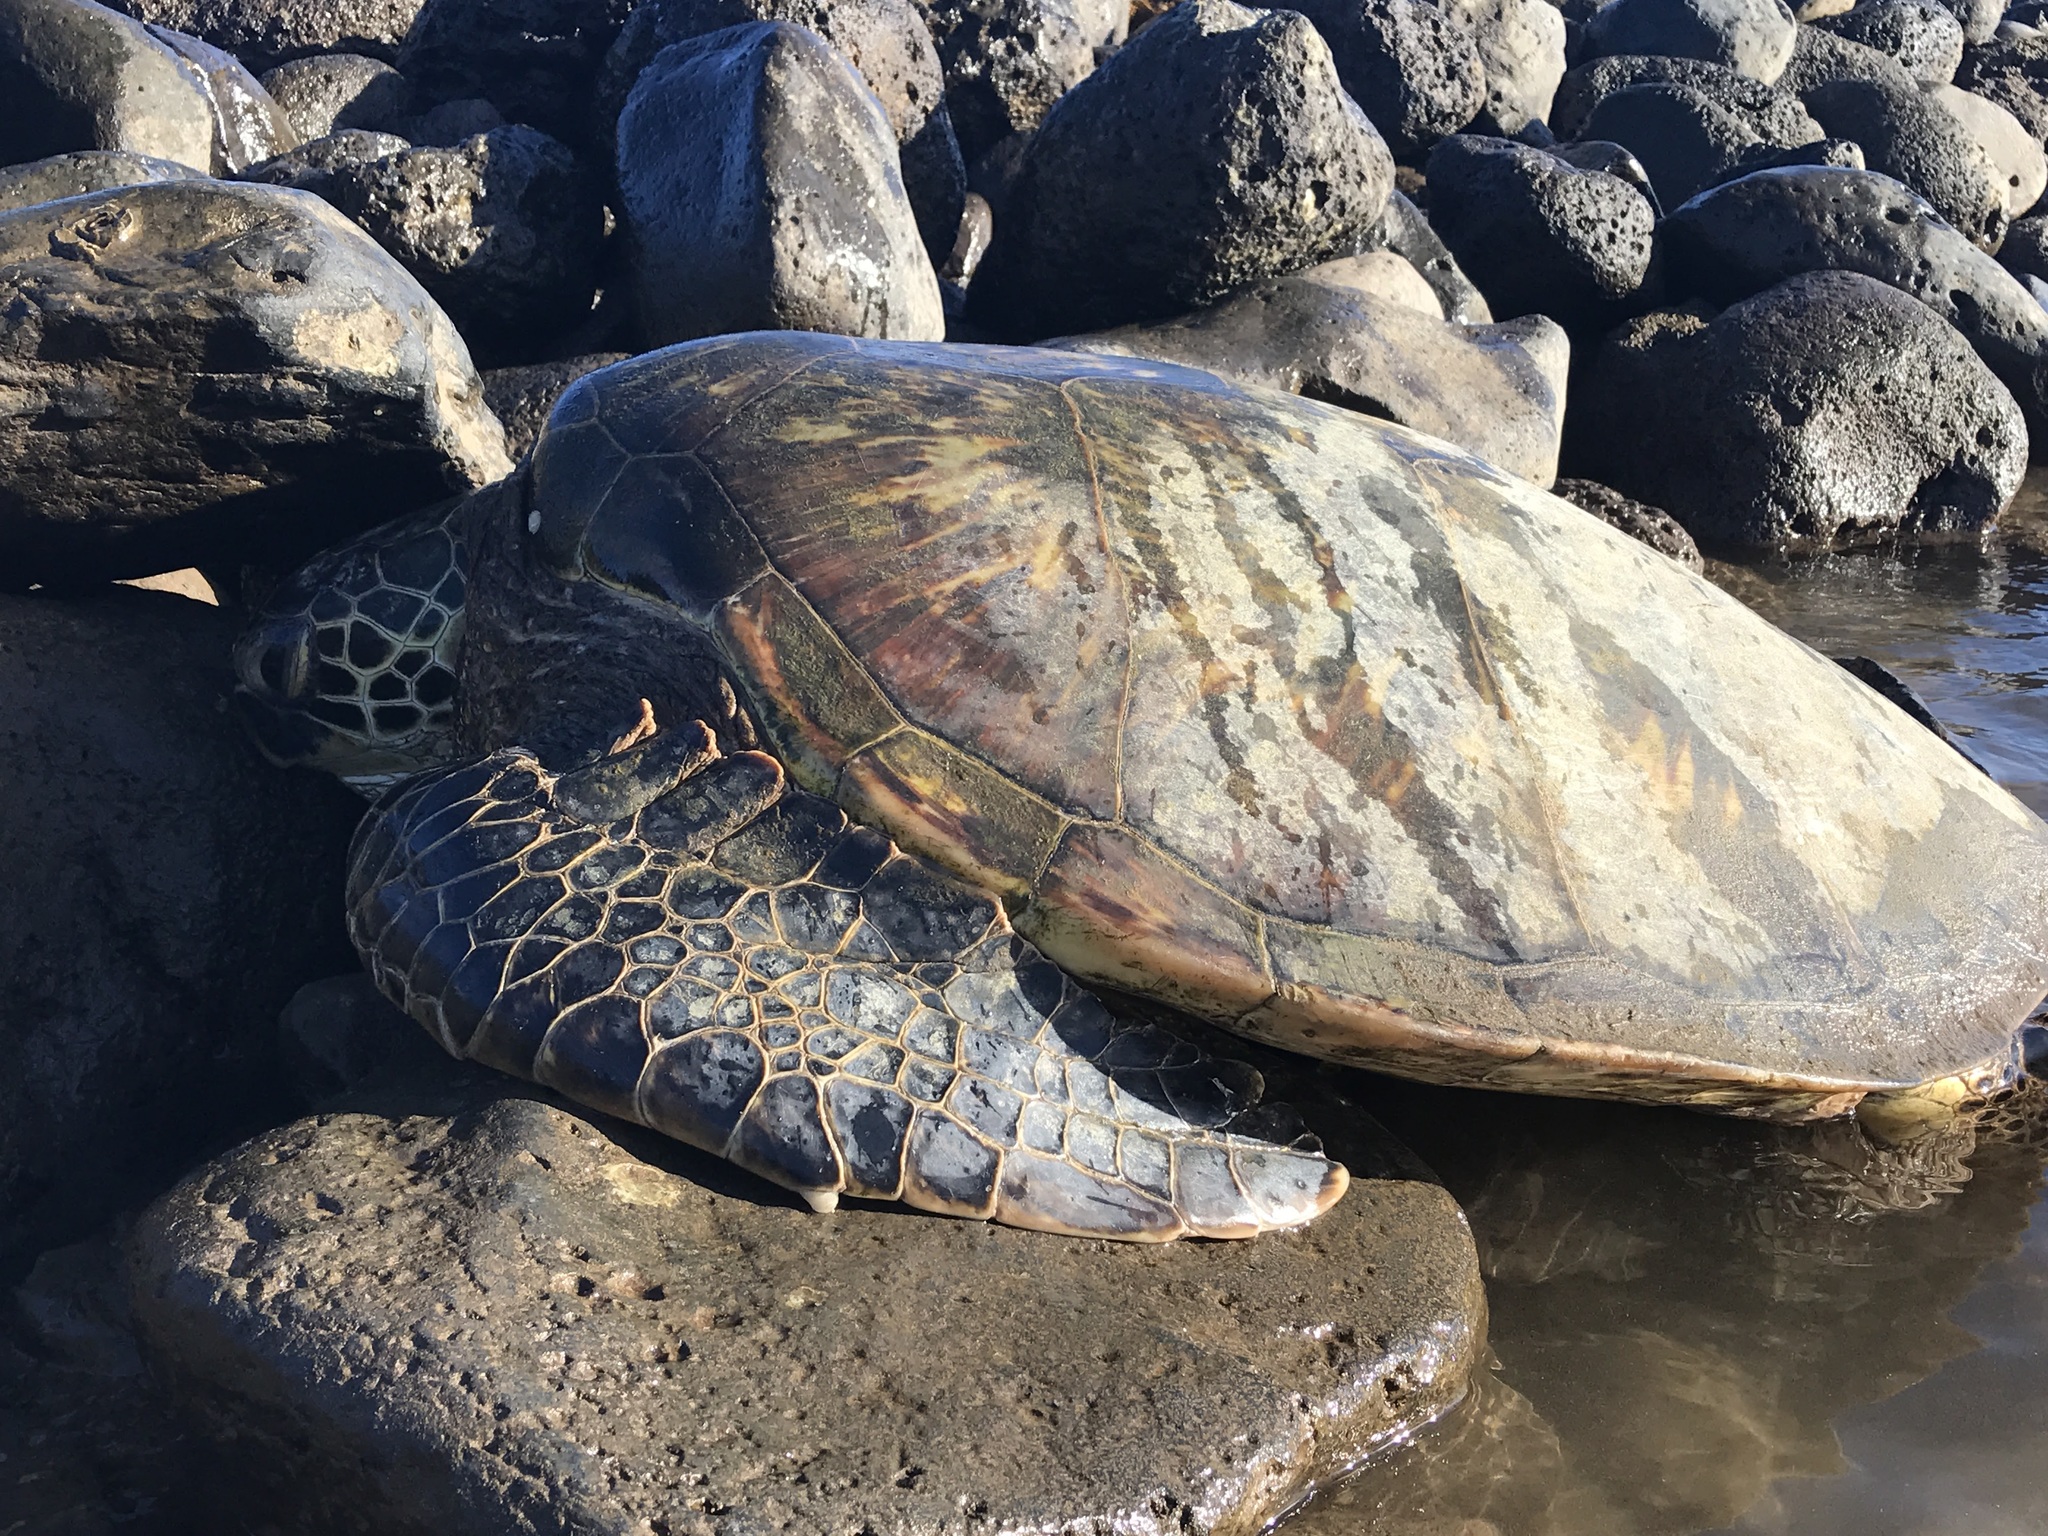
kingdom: Animalia
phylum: Chordata
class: Testudines
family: Cheloniidae
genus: Chelonia
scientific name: Chelonia mydas
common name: Green turtle
